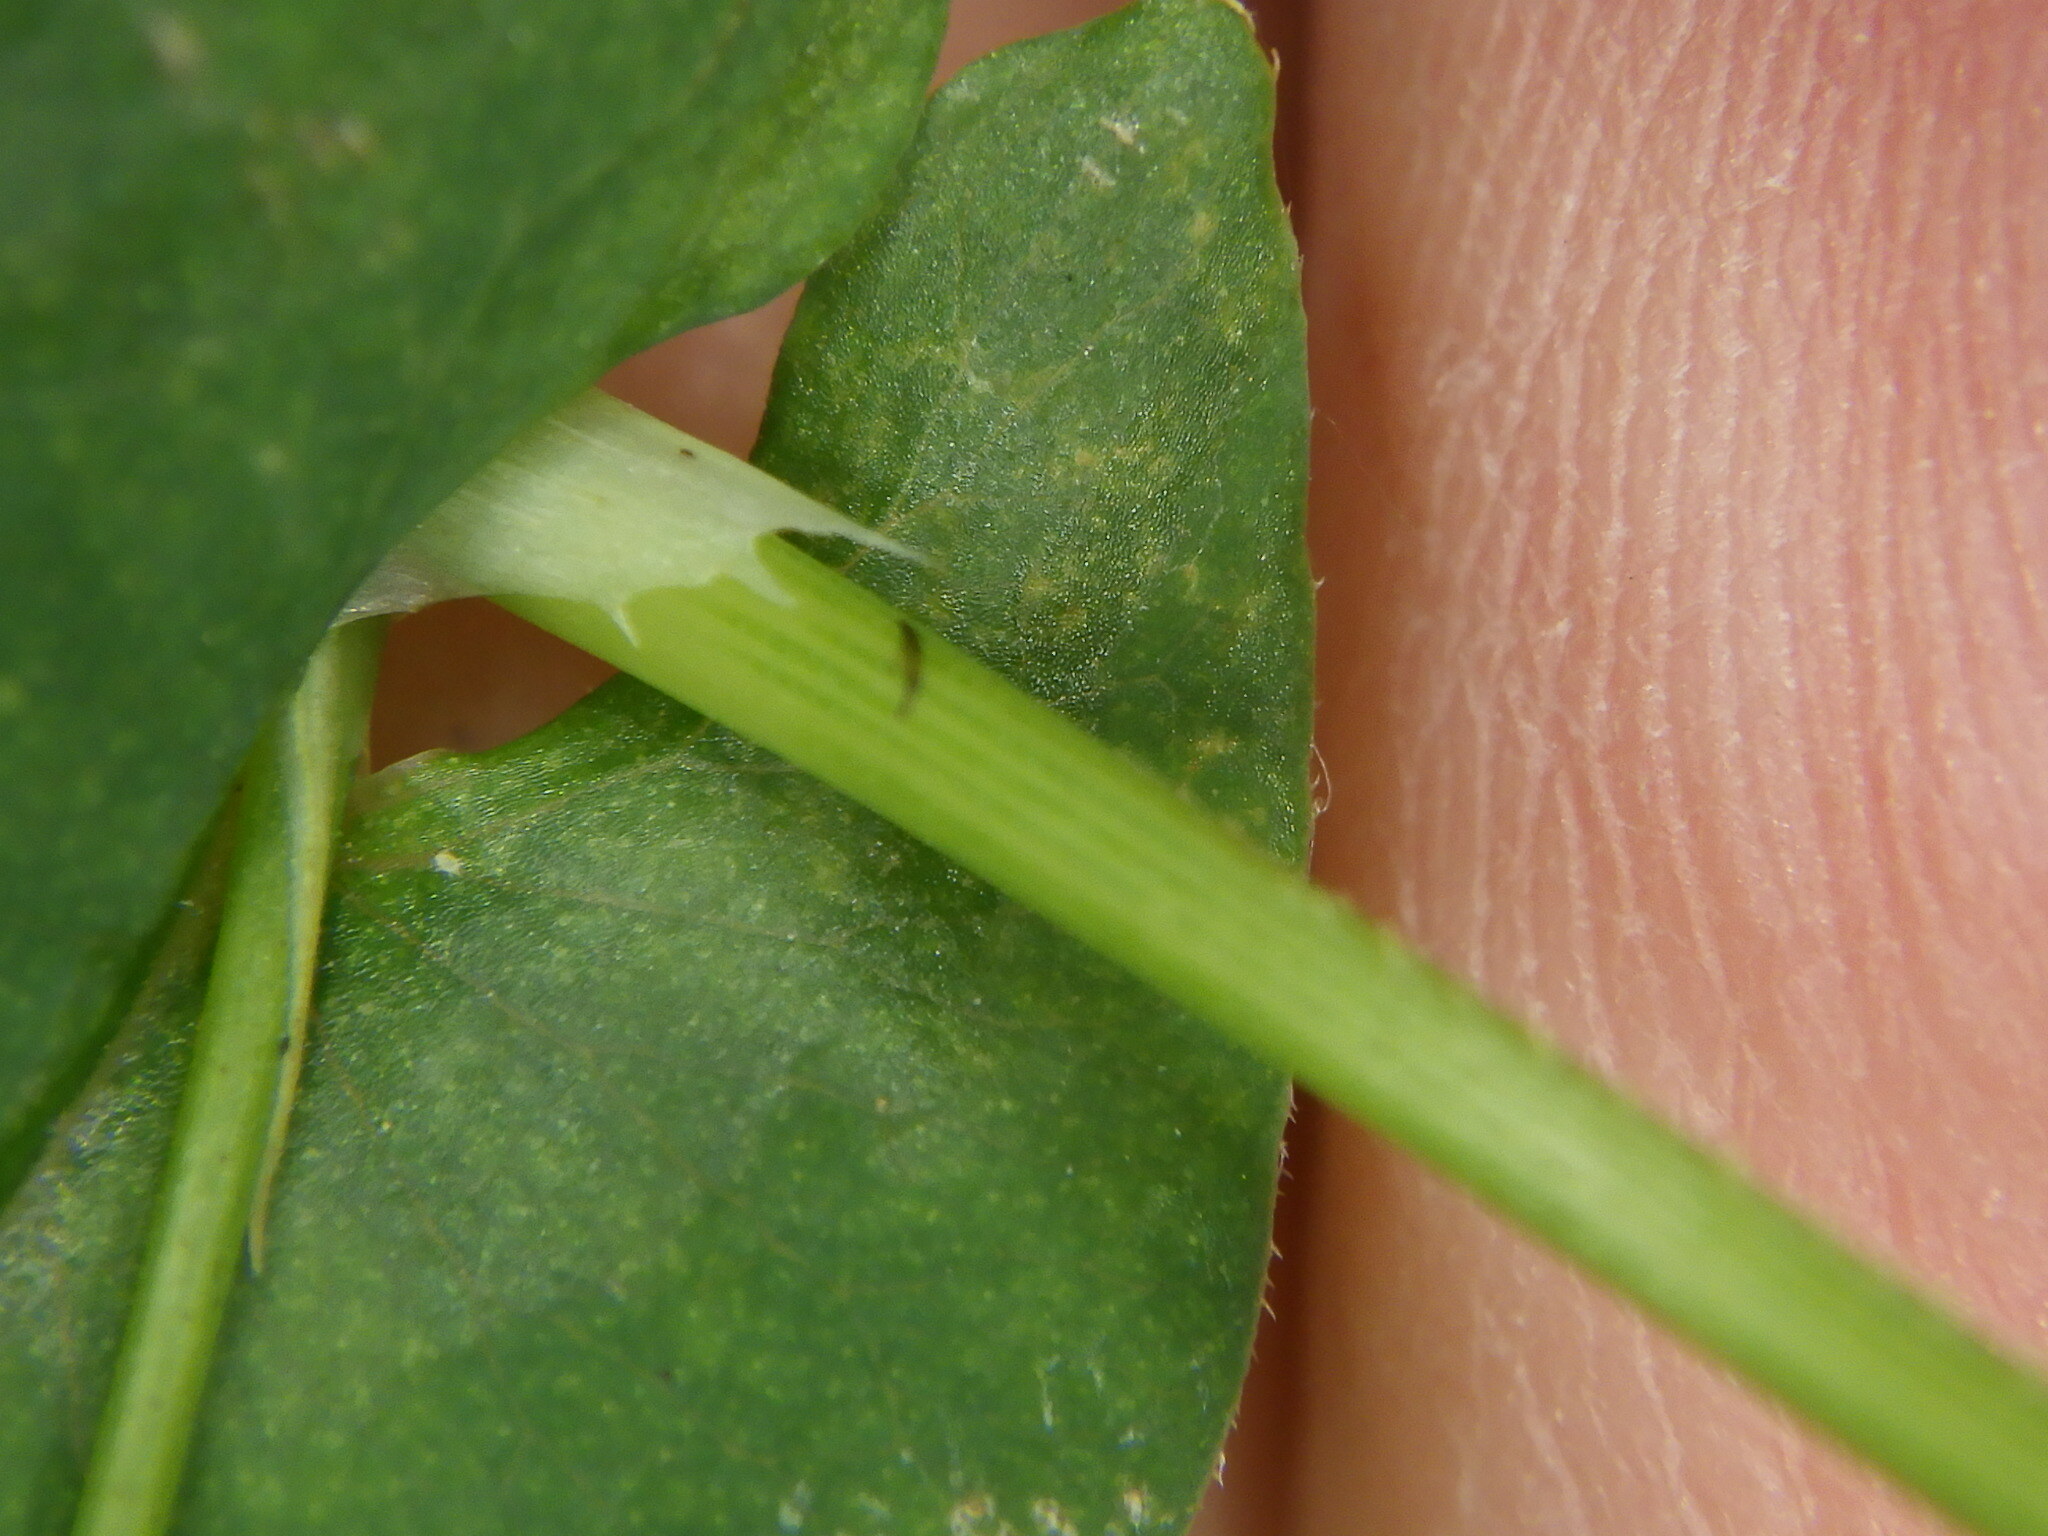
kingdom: Plantae
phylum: Tracheophyta
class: Magnoliopsida
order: Caryophyllales
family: Polygonaceae
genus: Persicaria
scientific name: Persicaria sagittata
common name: American tearthumb
